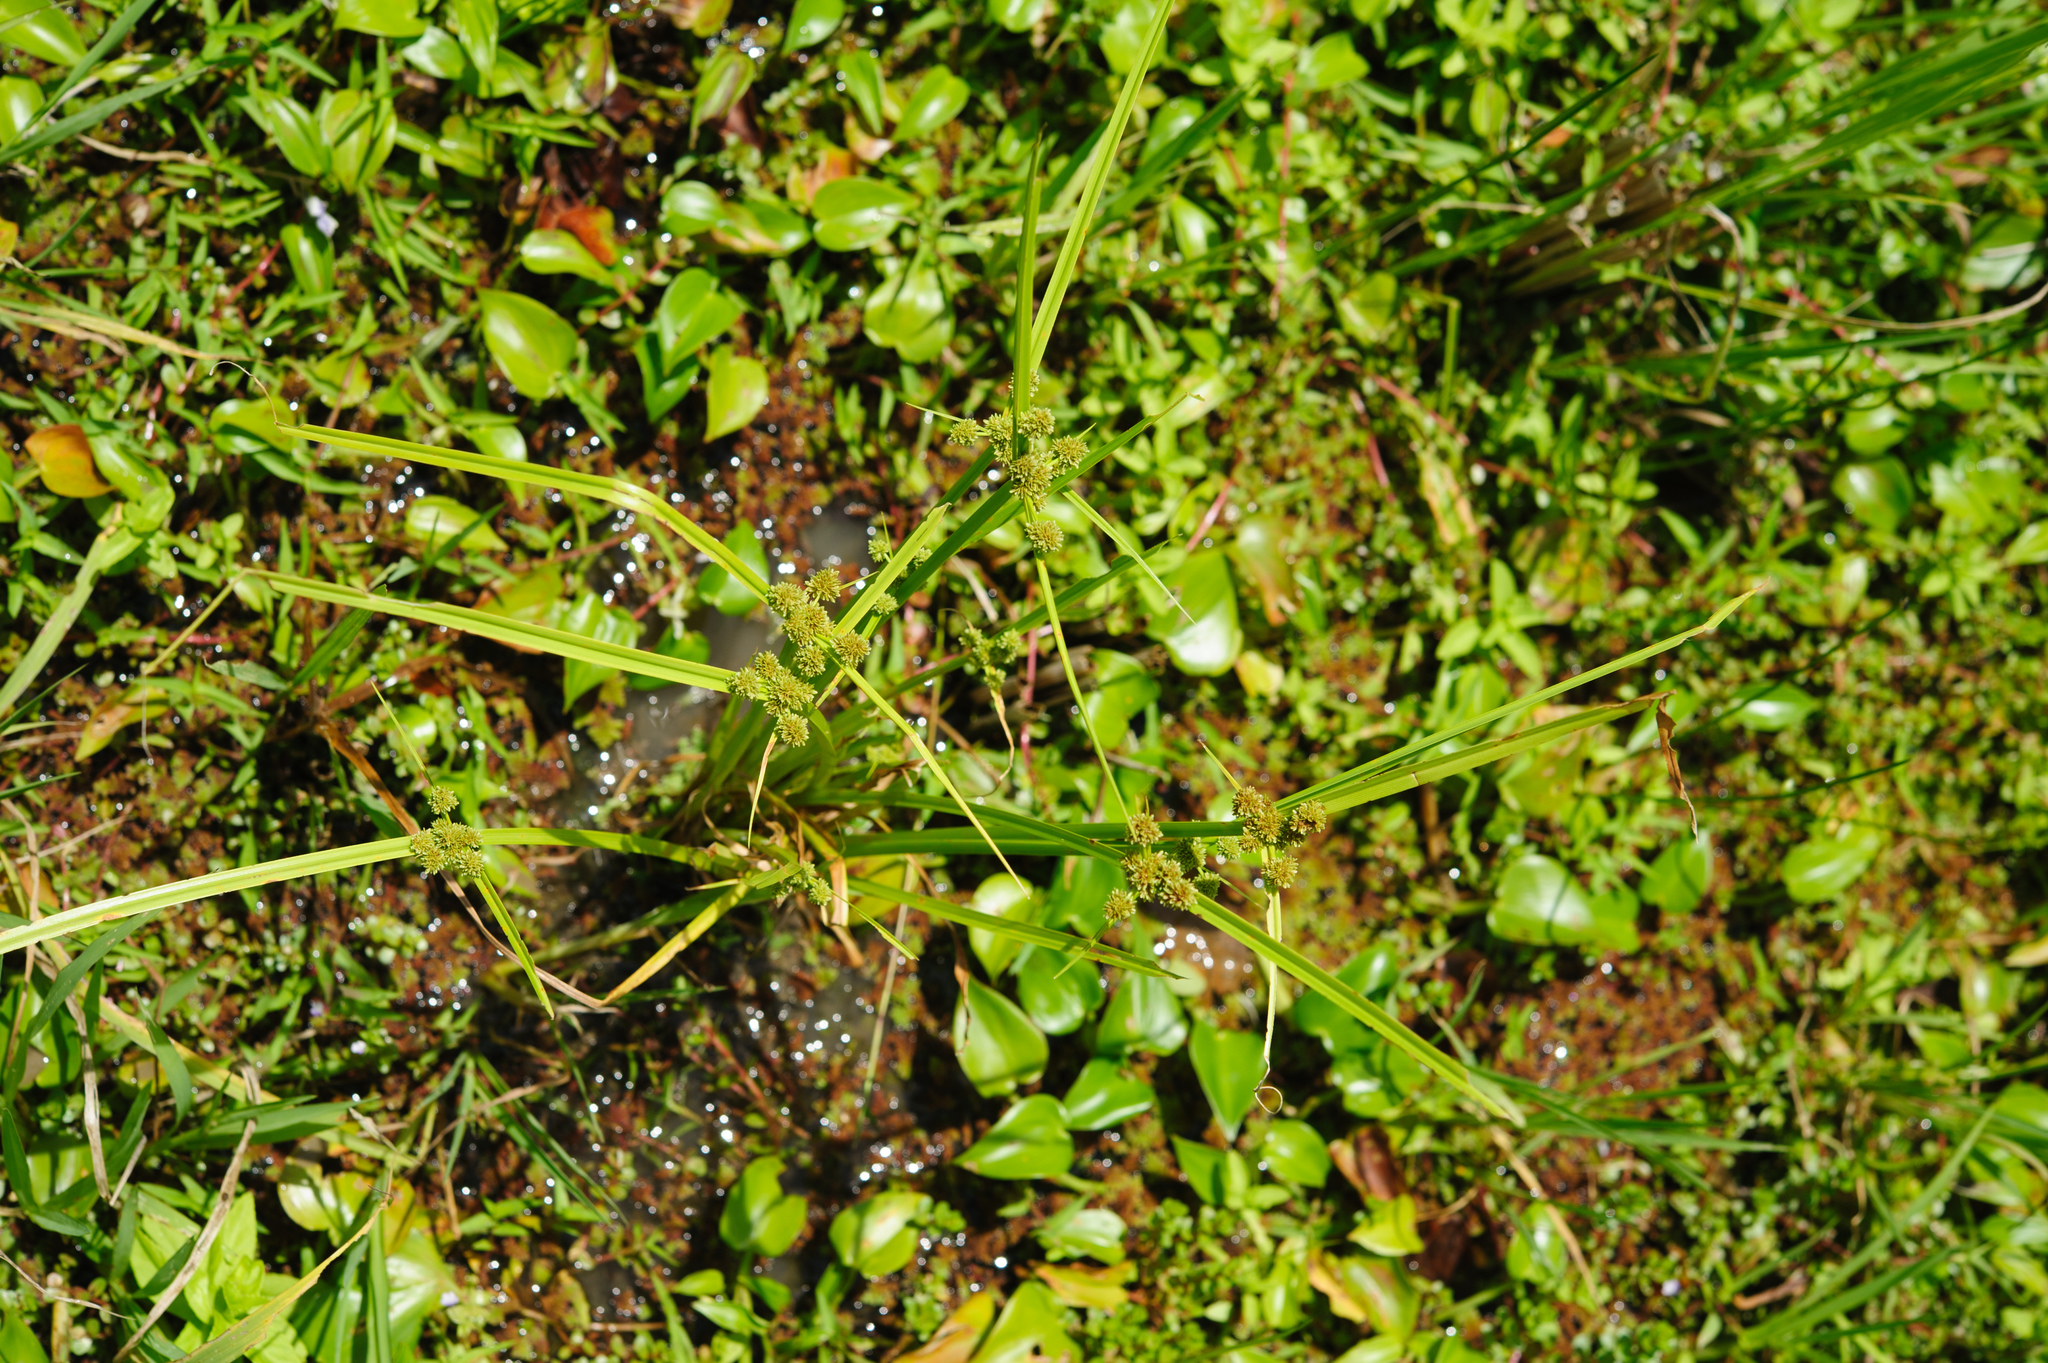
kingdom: Plantae
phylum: Tracheophyta
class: Liliopsida
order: Poales
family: Cyperaceae
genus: Cyperus
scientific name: Cyperus difformis
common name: Variable flatsedge
